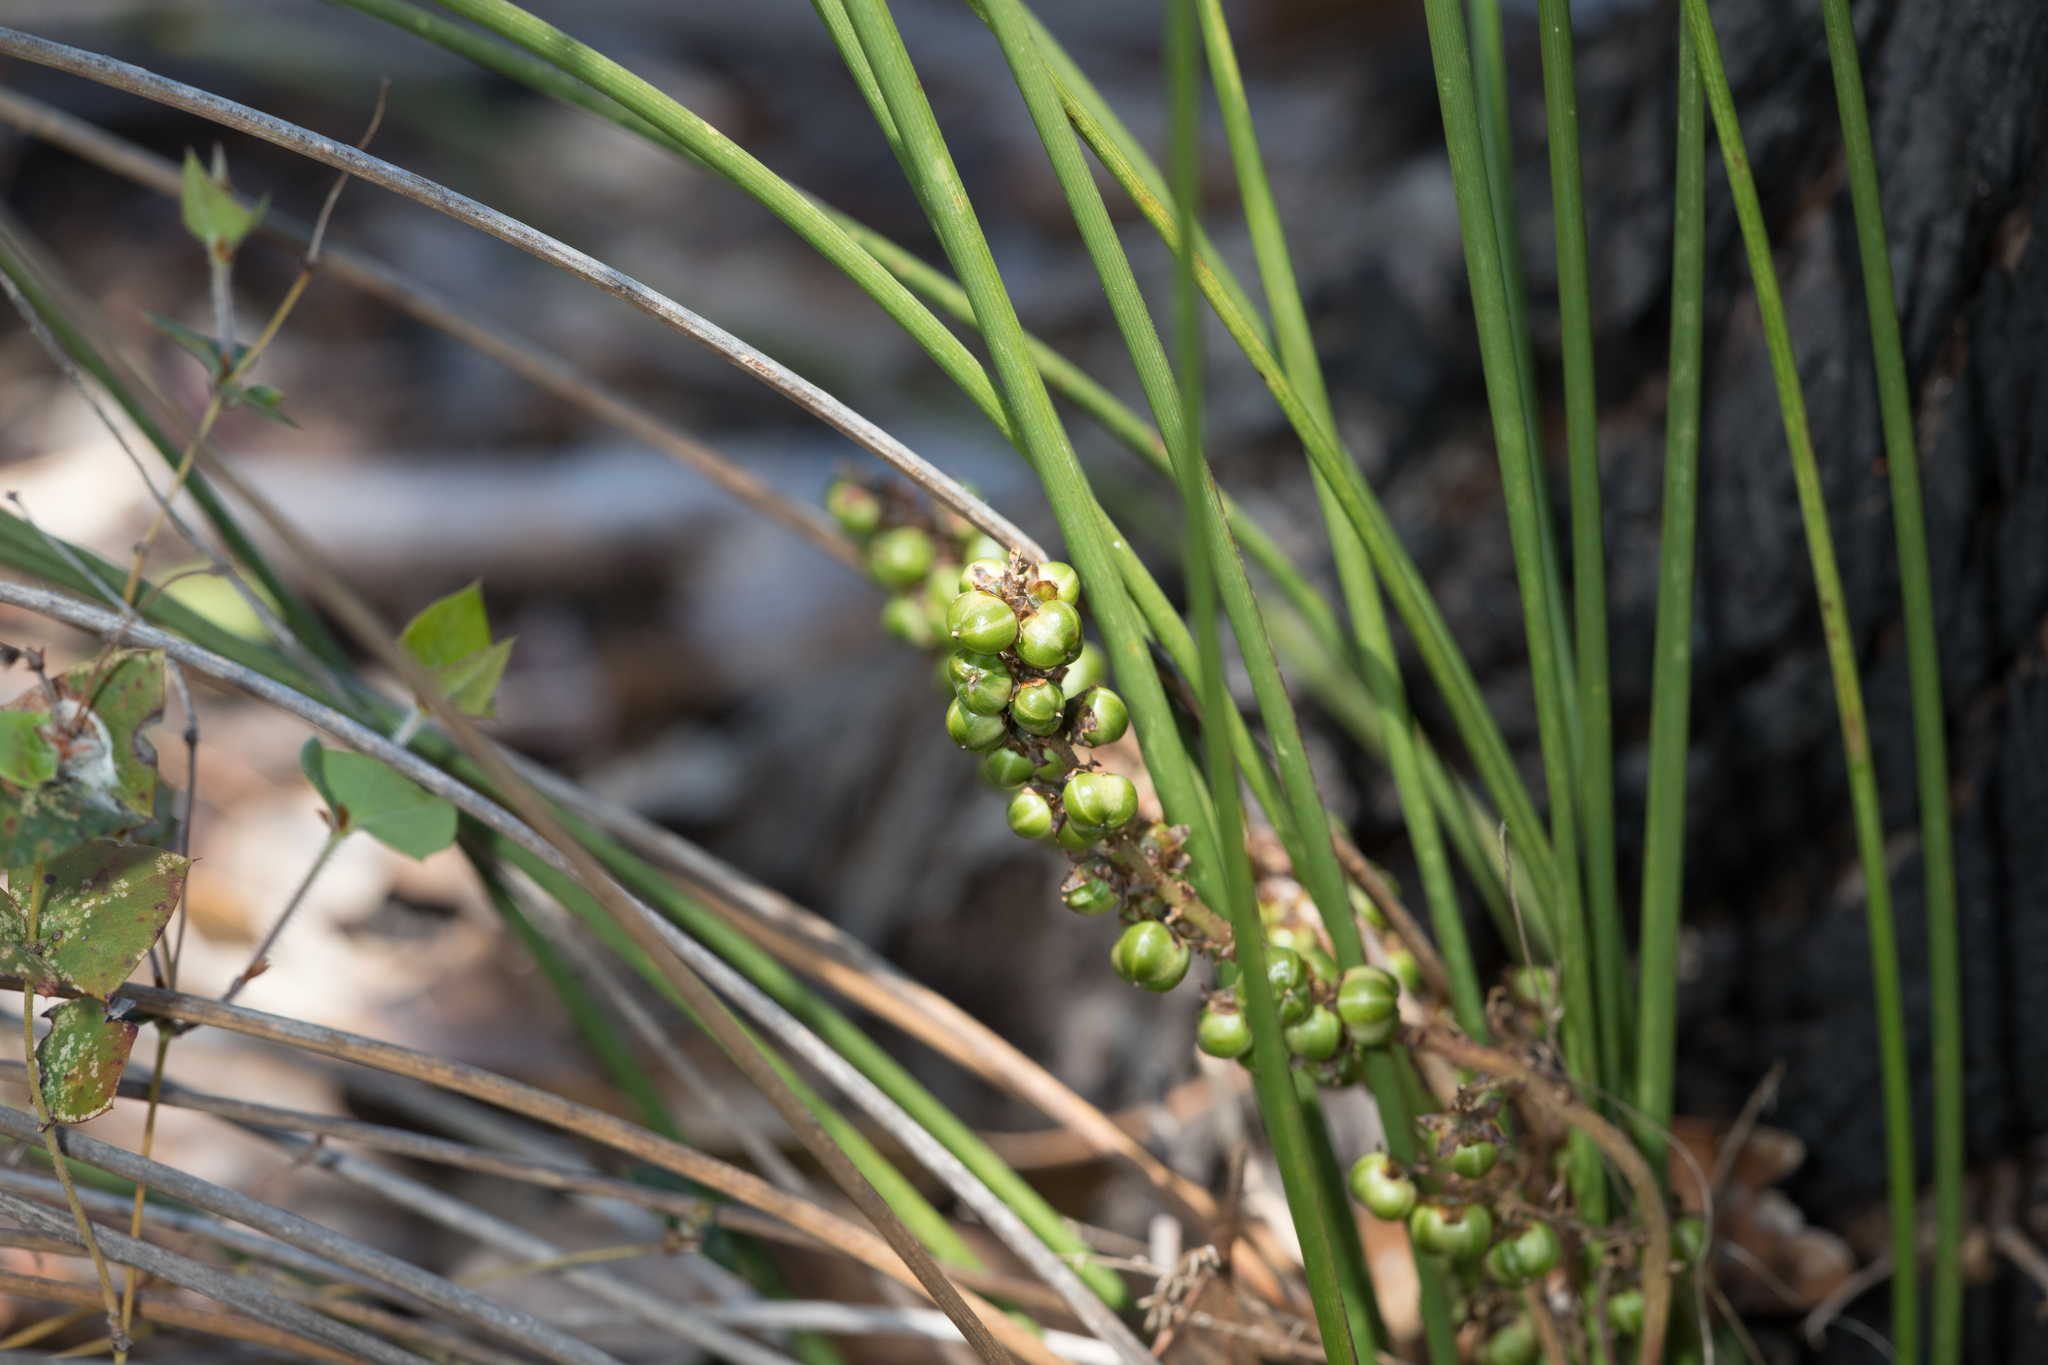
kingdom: Plantae
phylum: Tracheophyta
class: Liliopsida
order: Asparagales
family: Asparagaceae
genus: Lomandra
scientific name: Lomandra micrantha
